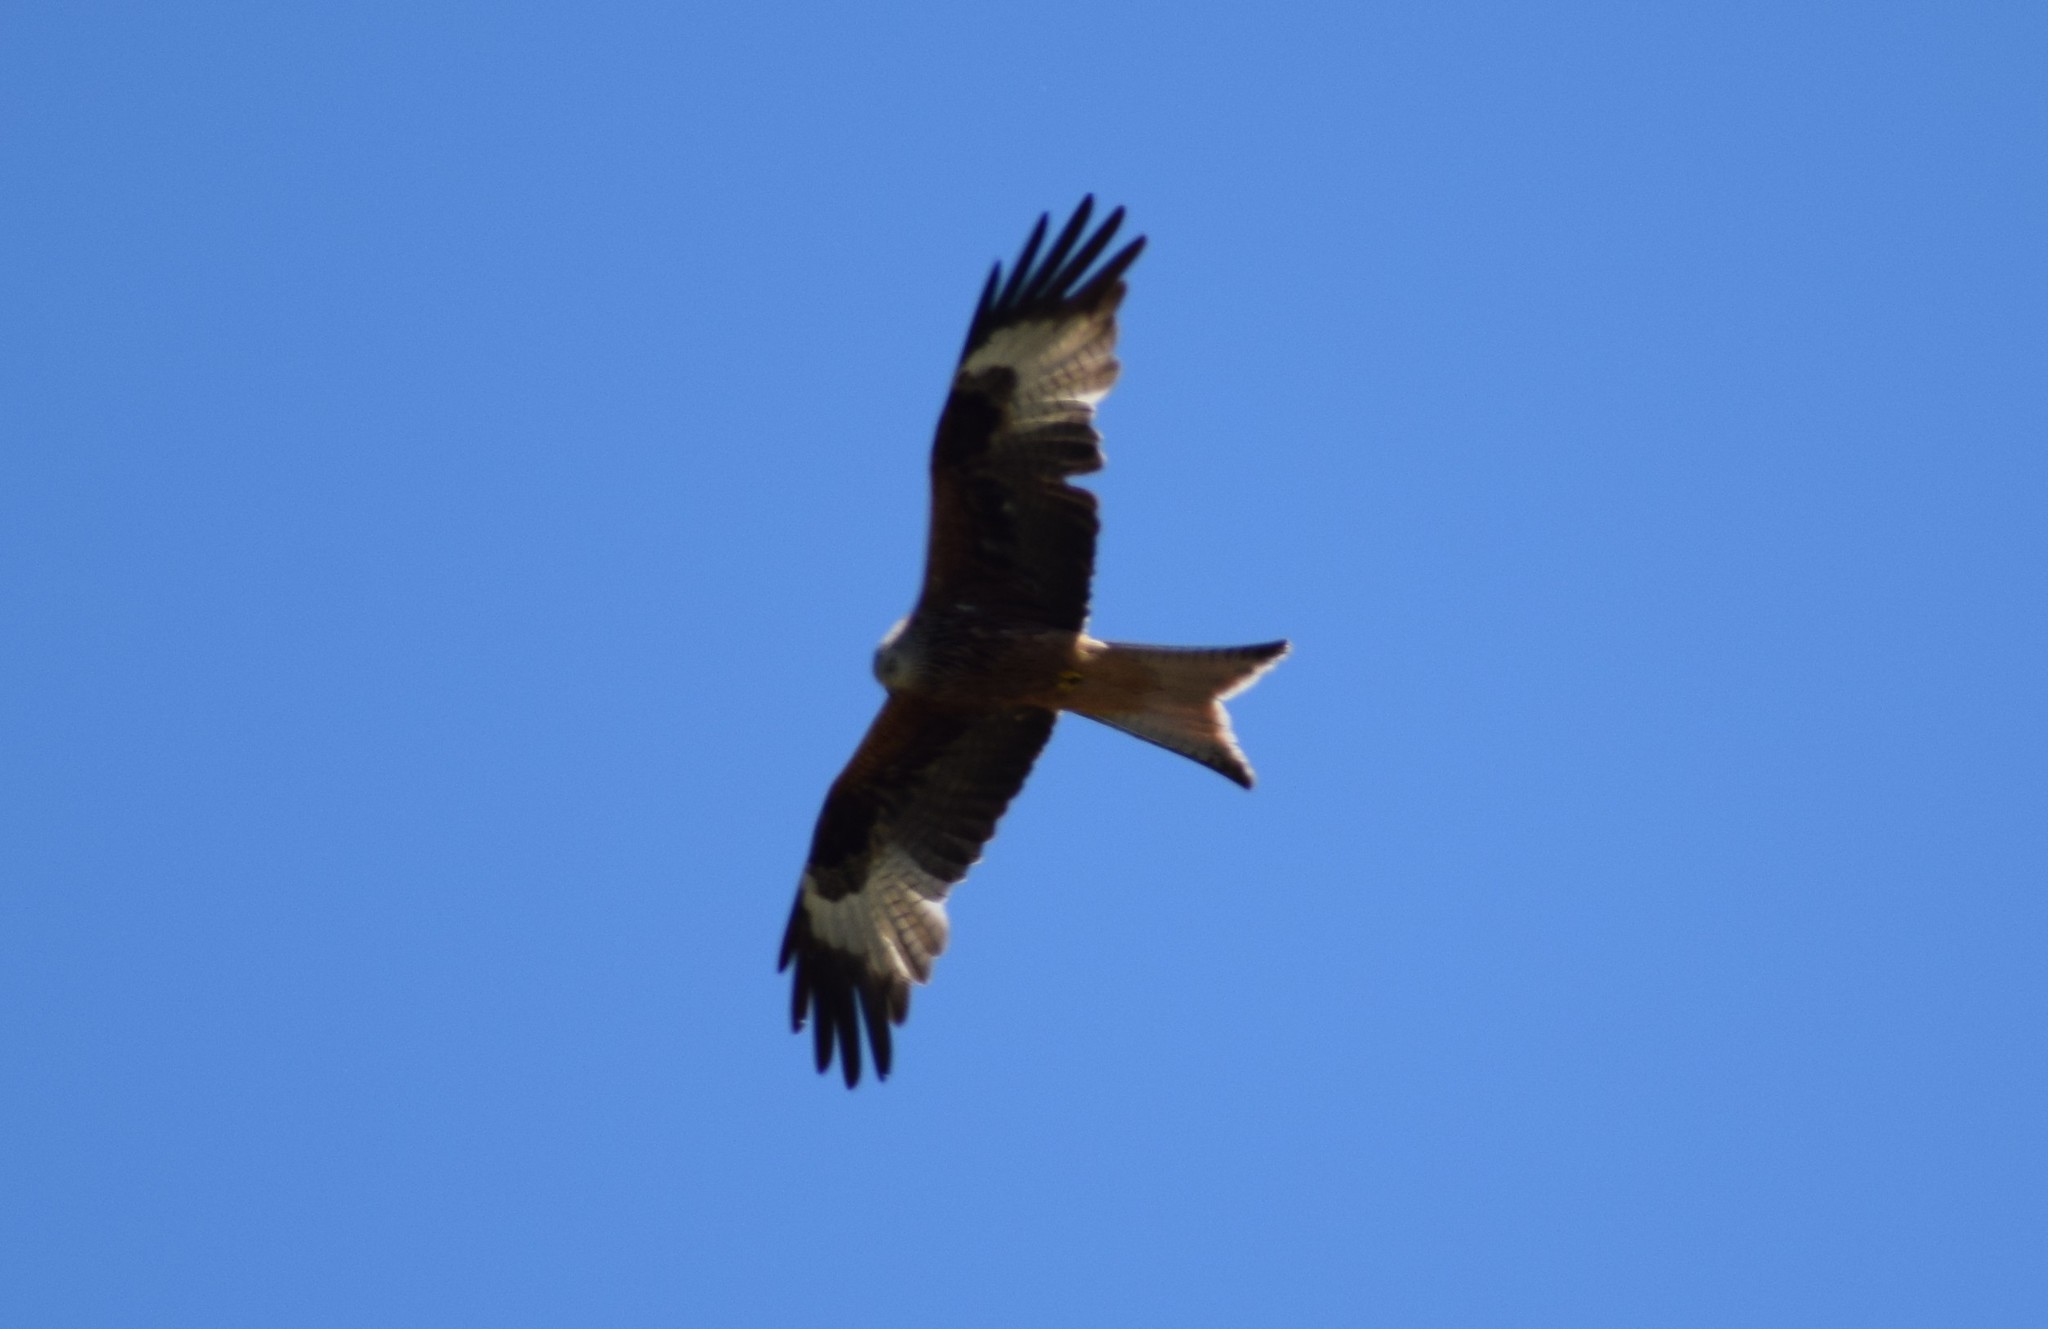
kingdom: Animalia
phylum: Chordata
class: Aves
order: Accipitriformes
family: Accipitridae
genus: Milvus
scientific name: Milvus milvus
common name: Red kite
